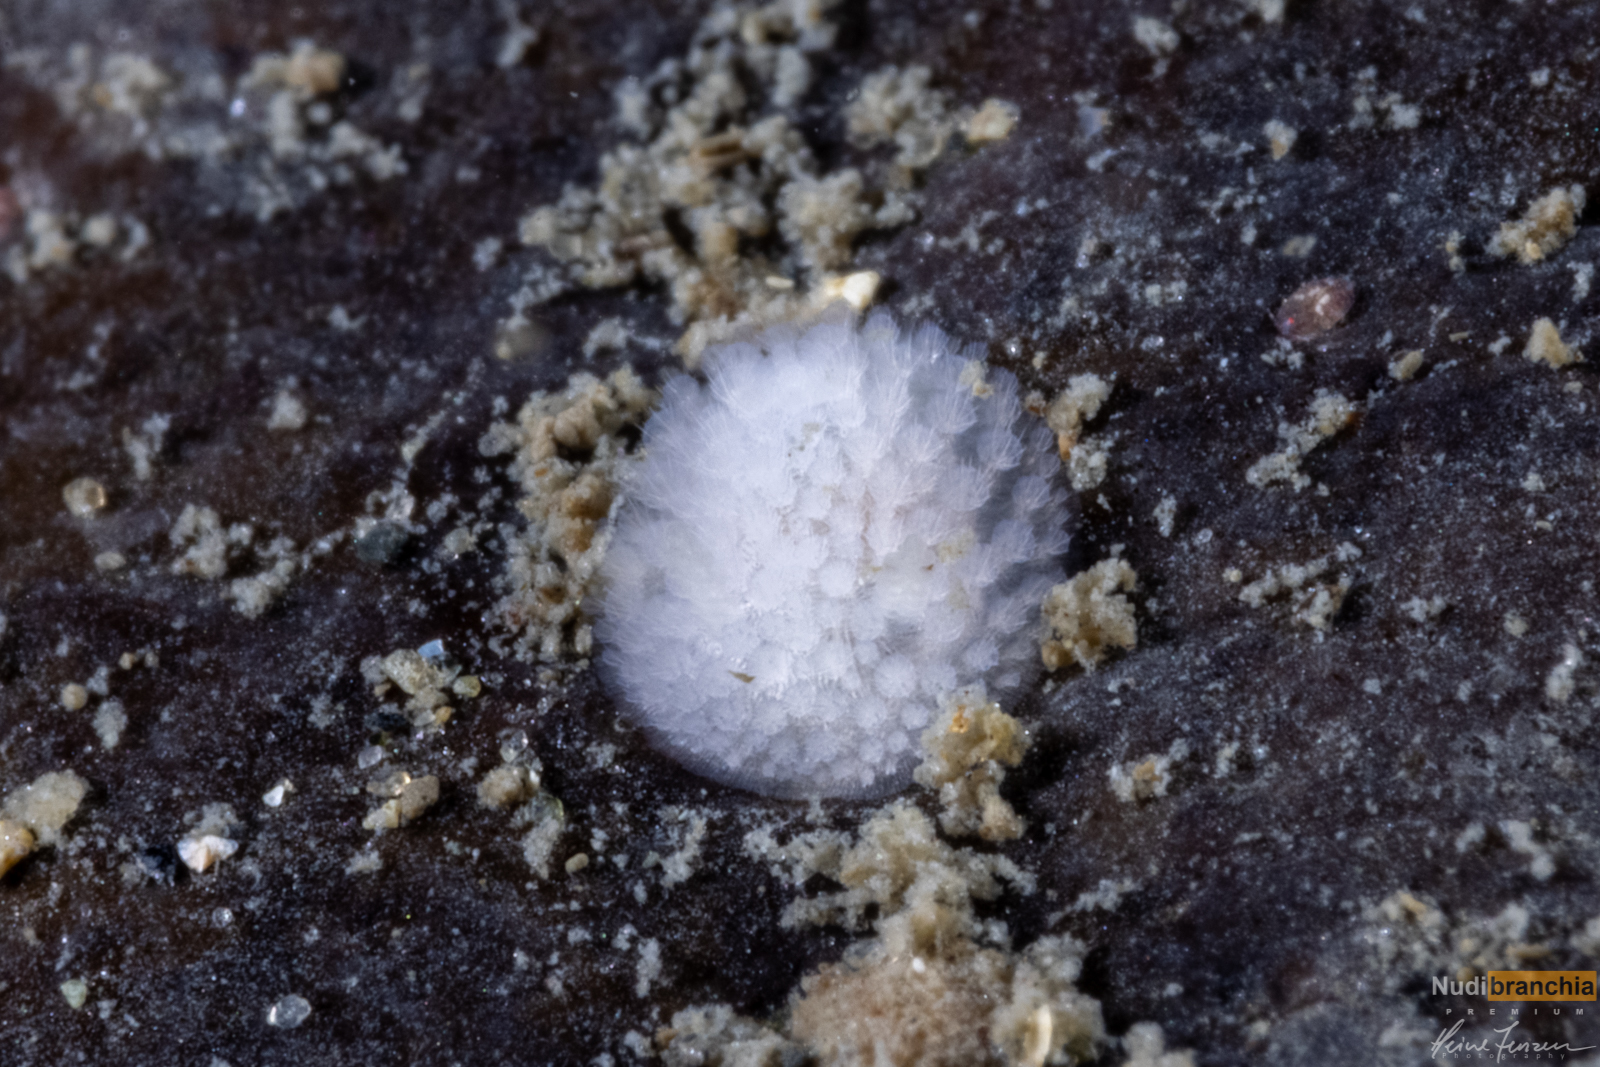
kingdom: Animalia
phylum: Mollusca
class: Gastropoda
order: Nudibranchia
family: Onchidorididae
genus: Onchidoris
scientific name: Onchidoris muricata
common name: Rough doris
